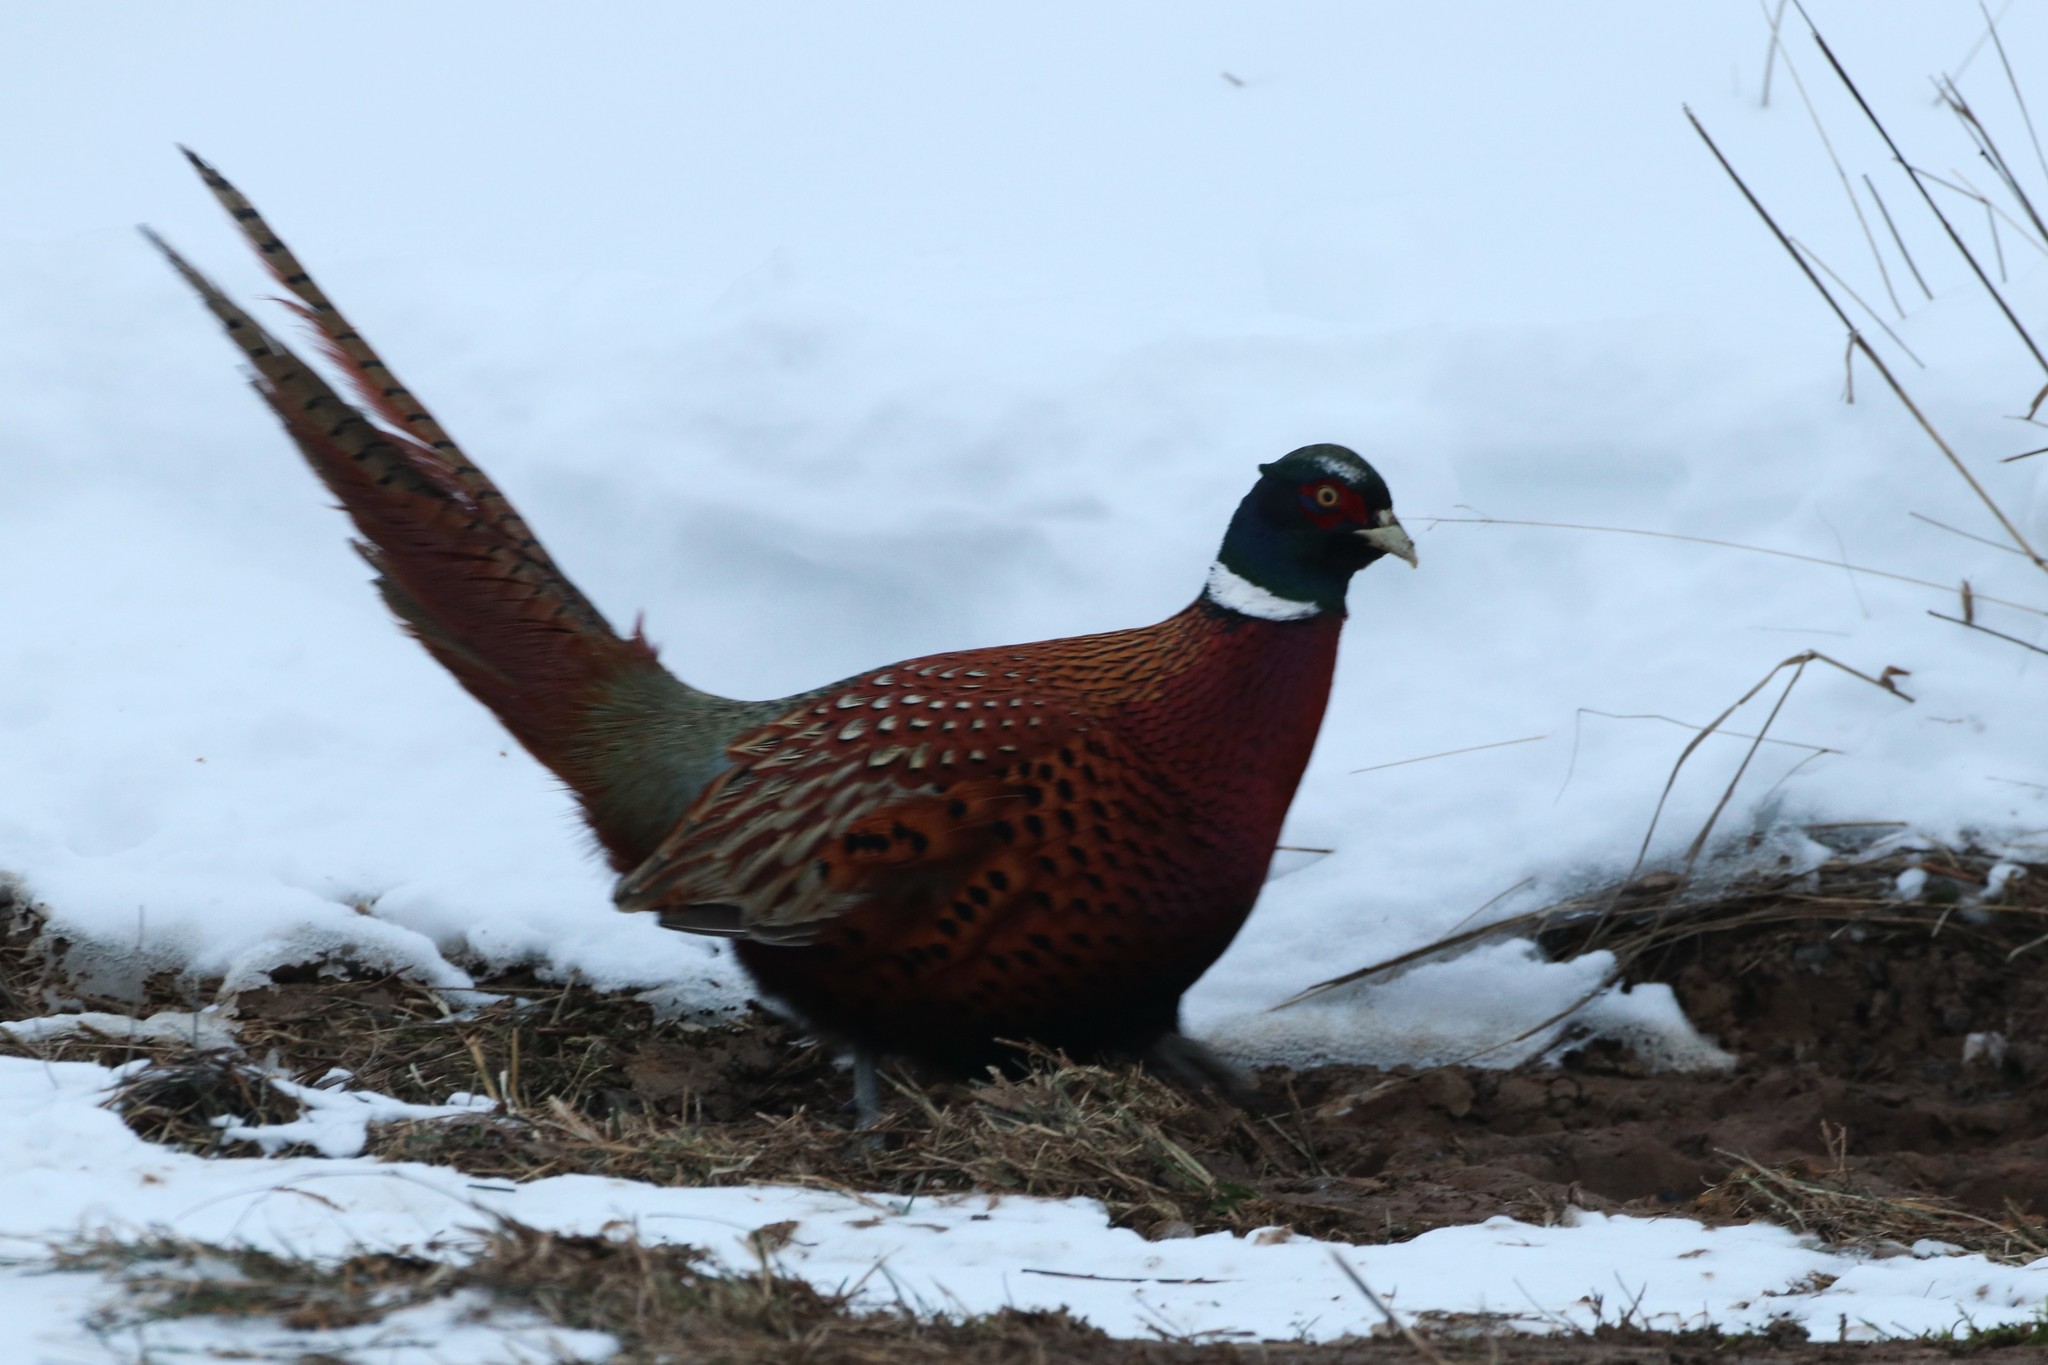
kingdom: Animalia
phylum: Chordata
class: Aves
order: Galliformes
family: Phasianidae
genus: Phasianus
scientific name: Phasianus colchicus
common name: Common pheasant
